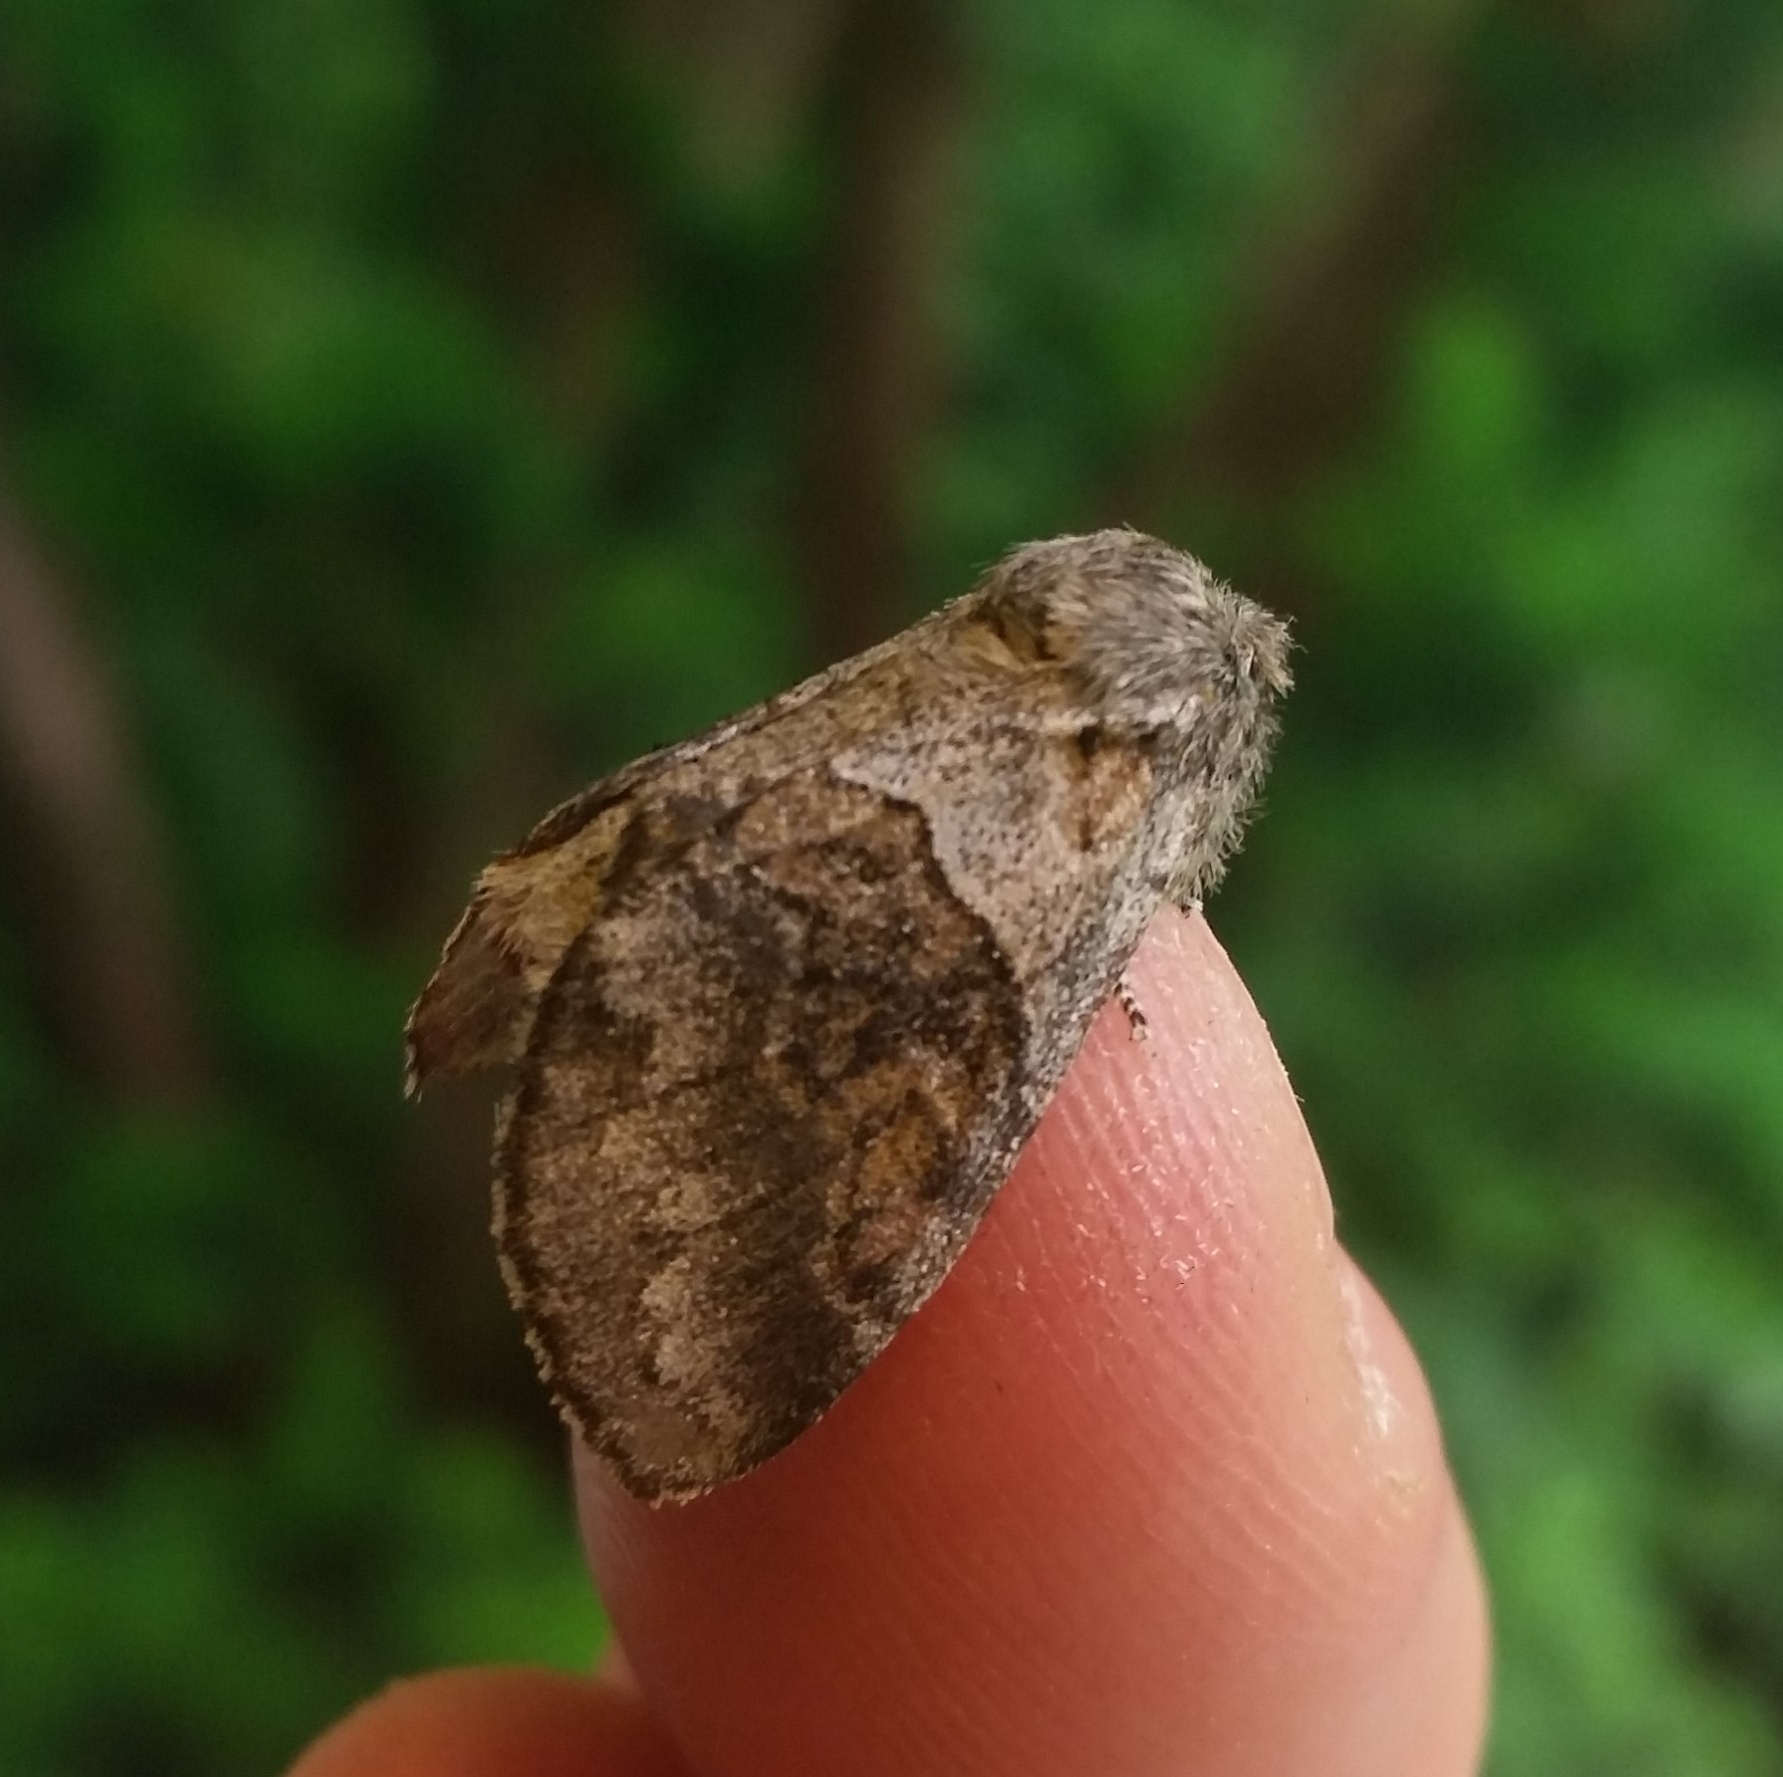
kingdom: Animalia
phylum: Arthropoda
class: Insecta
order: Lepidoptera
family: Notodontidae
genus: Gluphisia
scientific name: Gluphisia septentrionis
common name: Common gluphisia
